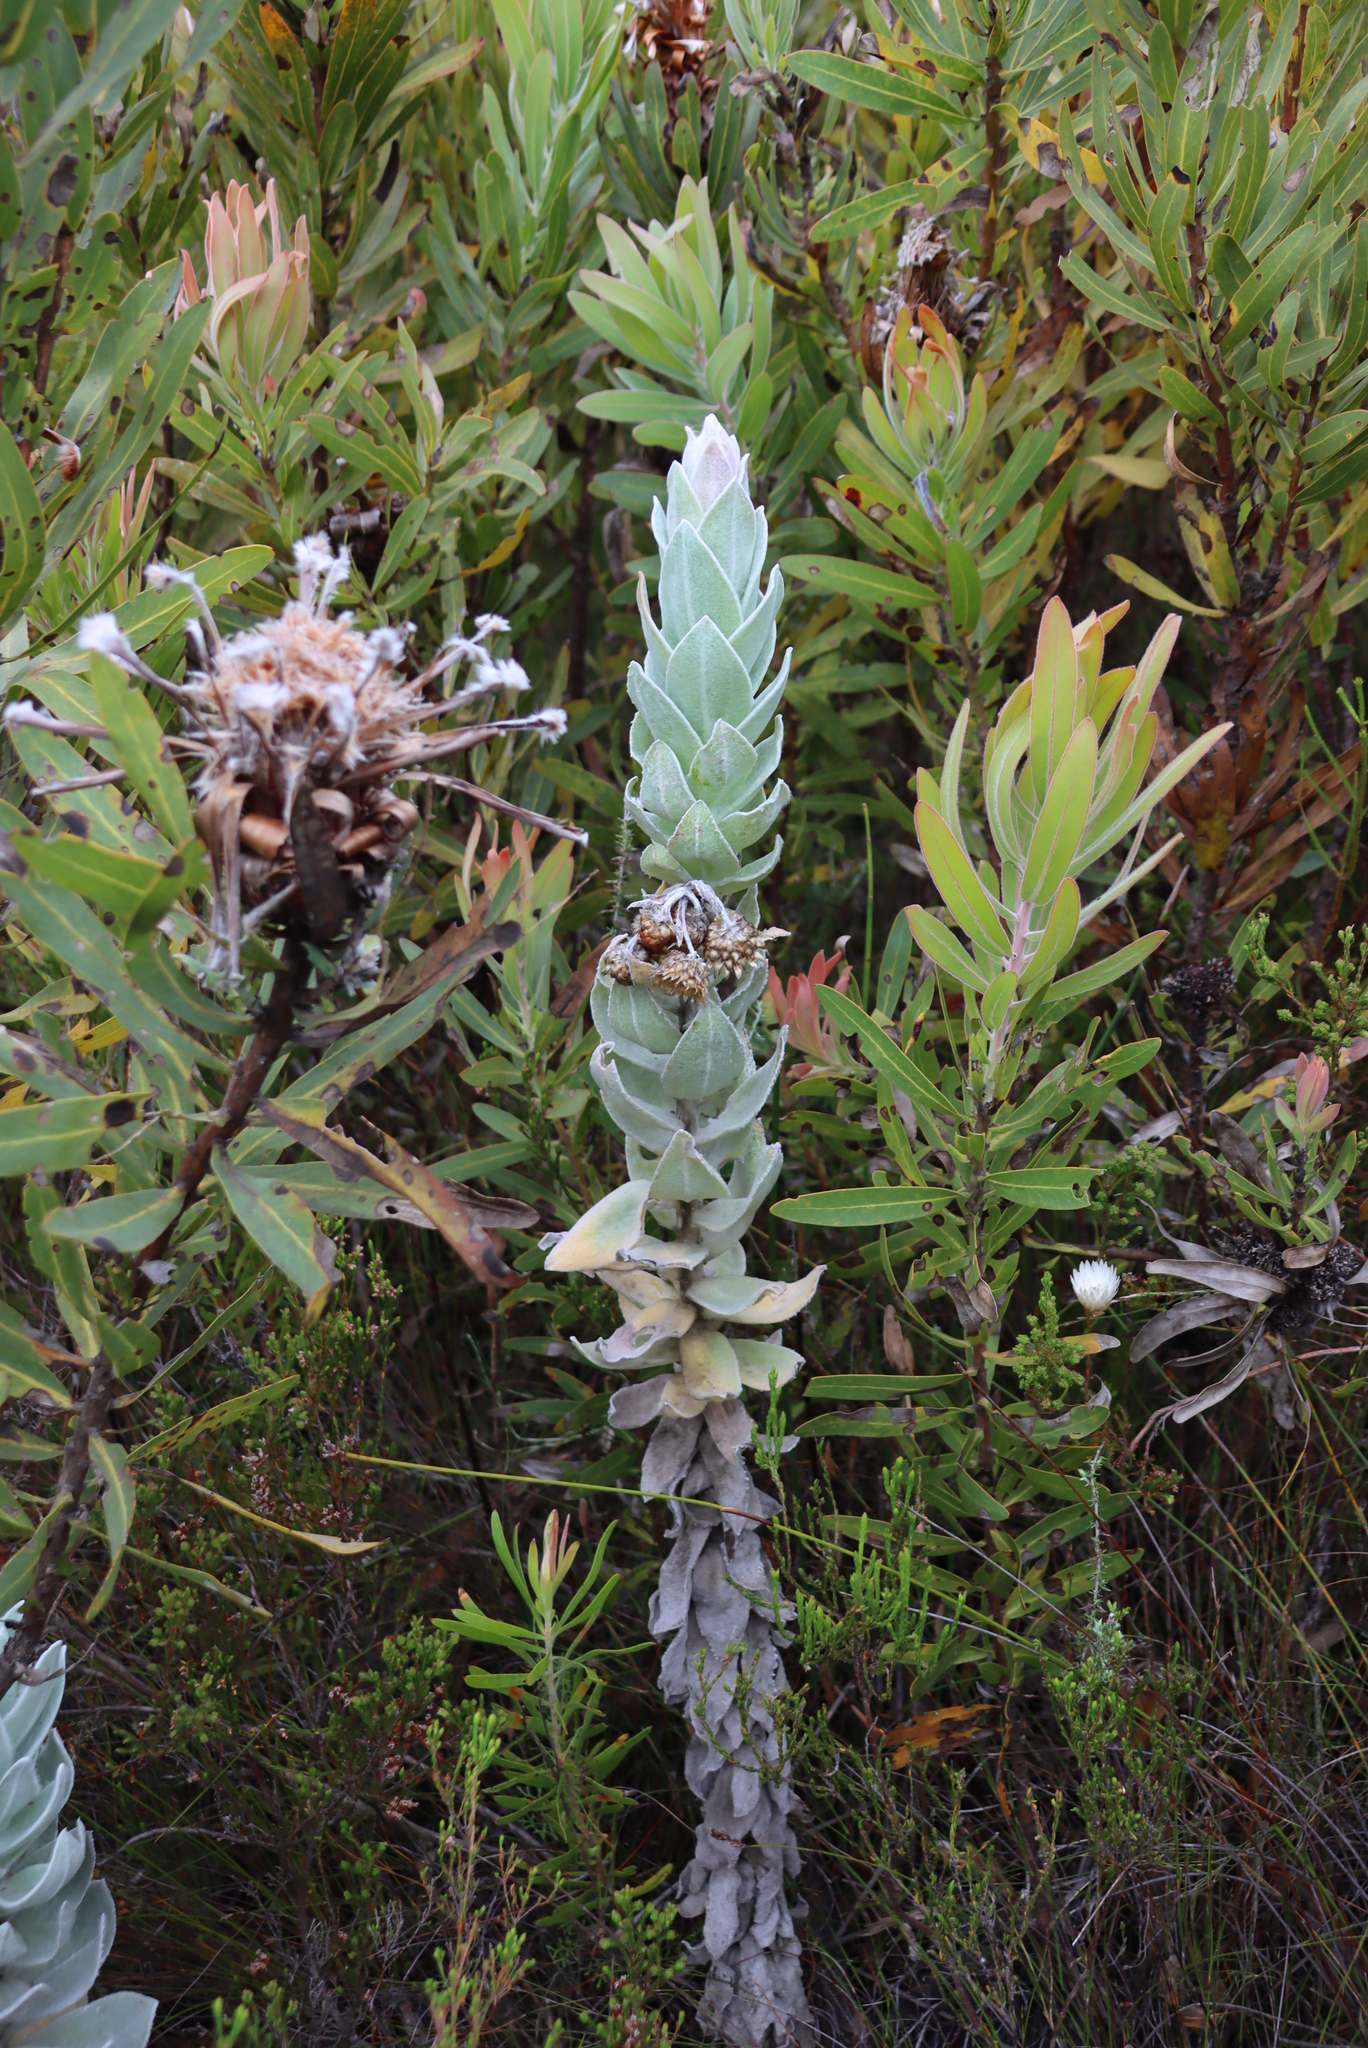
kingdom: Plantae
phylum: Tracheophyta
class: Magnoliopsida
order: Asterales
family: Asteraceae
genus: Syncarpha
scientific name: Syncarpha eximia
